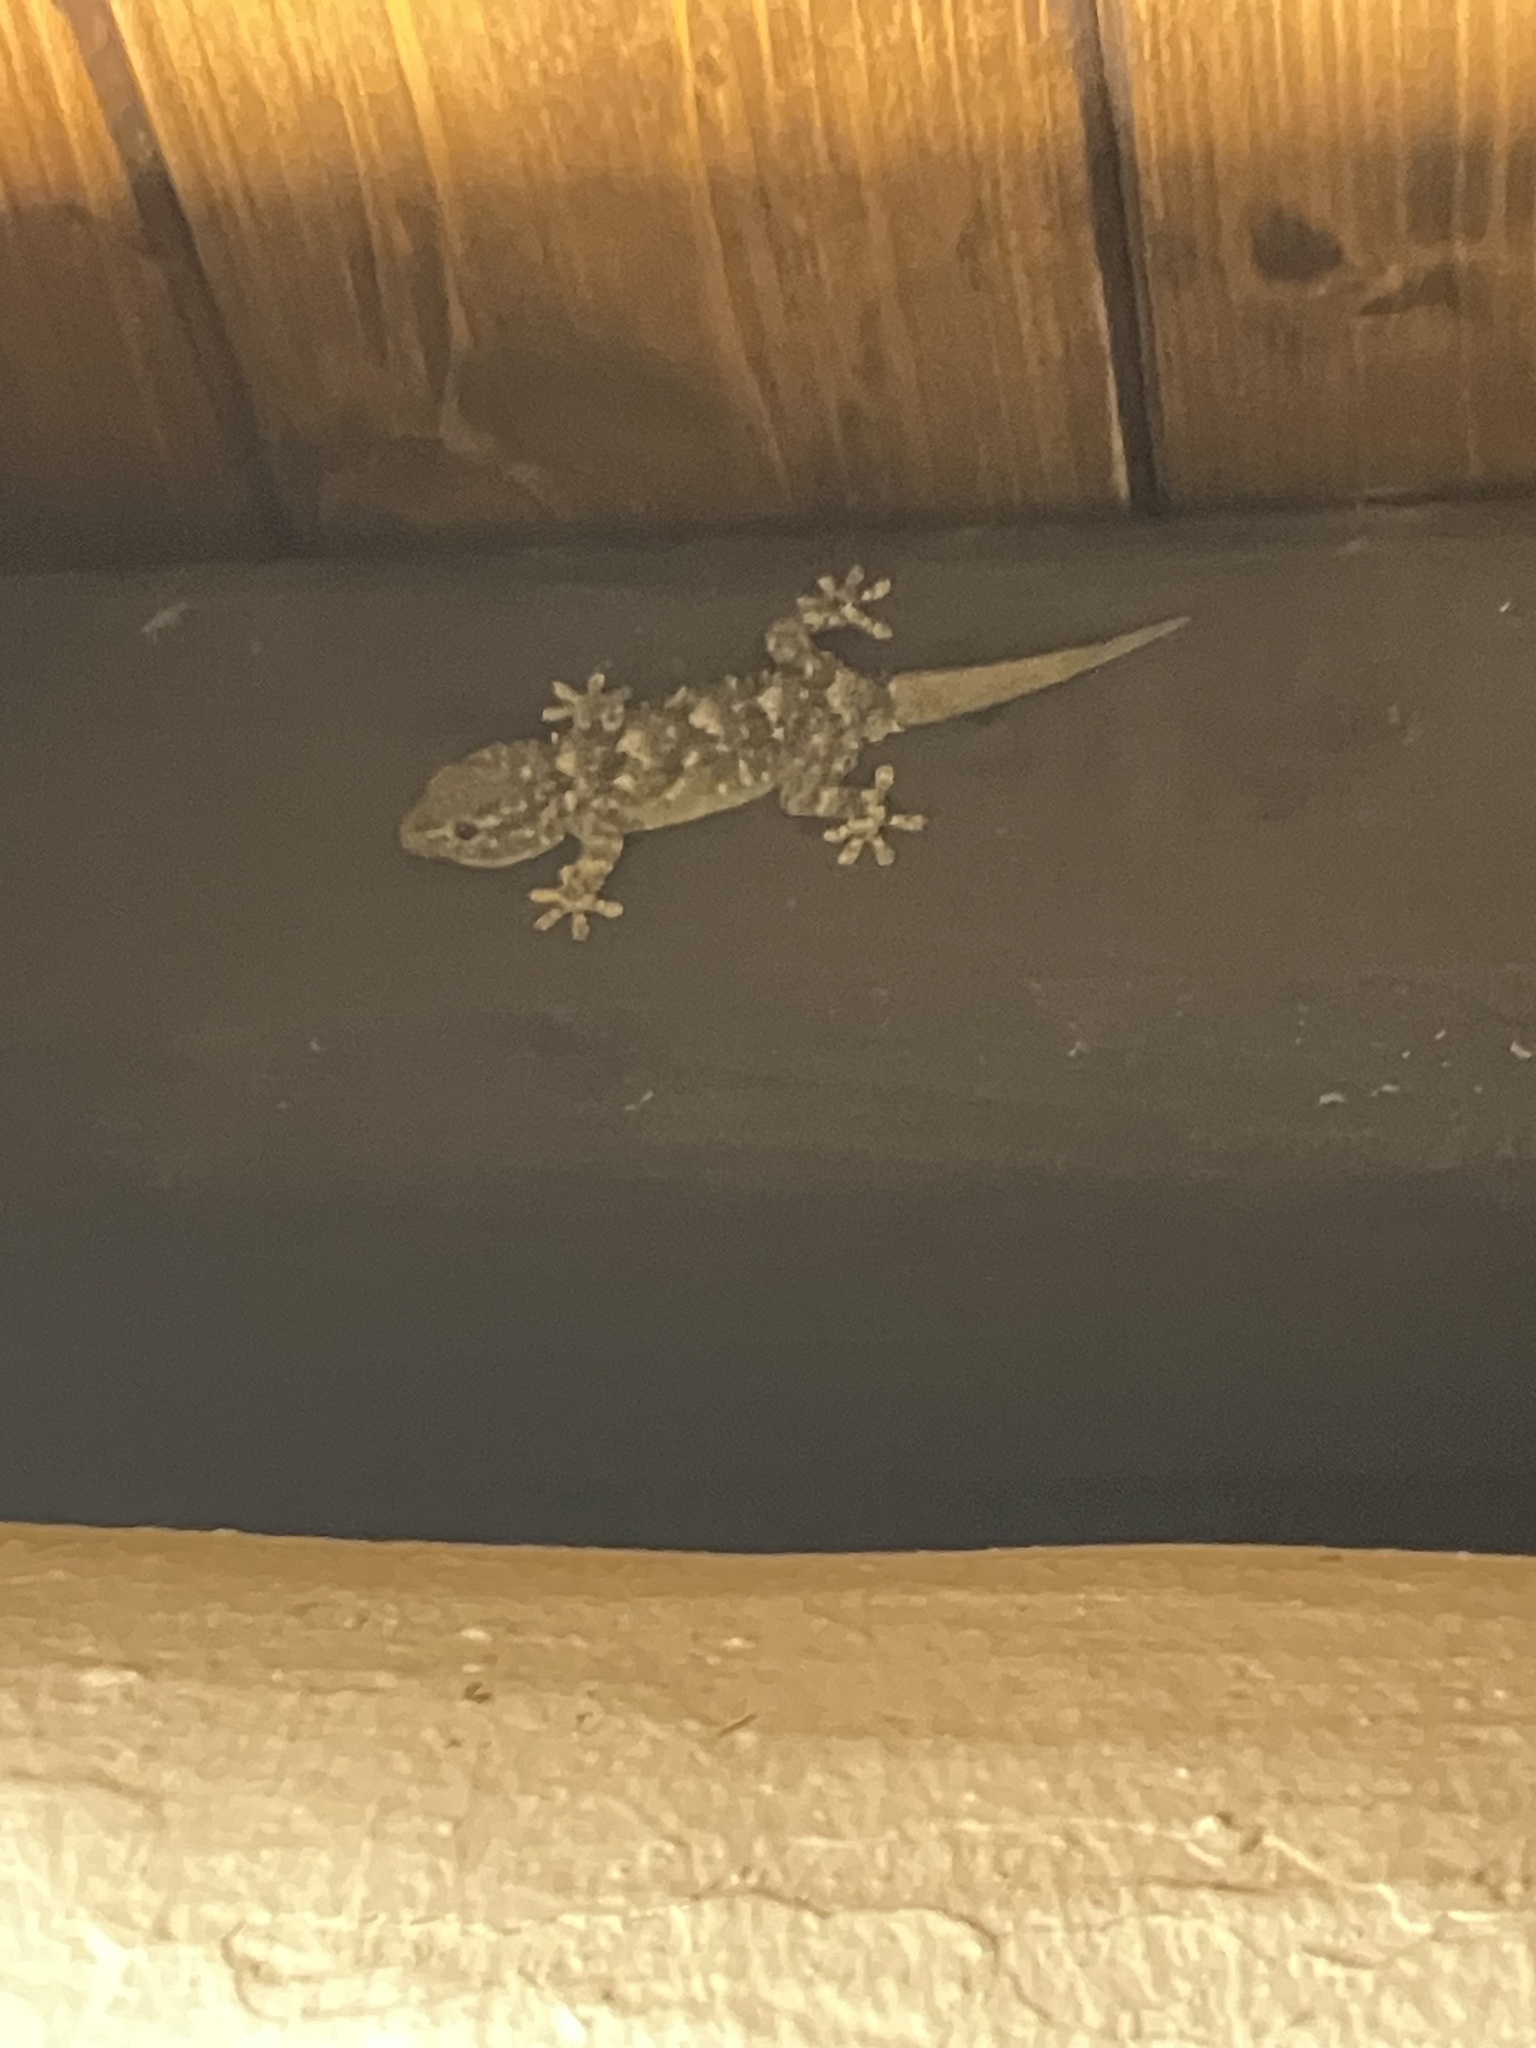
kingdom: Animalia
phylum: Chordata
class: Squamata
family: Phyllodactylidae
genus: Tarentola
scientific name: Tarentola mauritanica
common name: Moorish gecko
